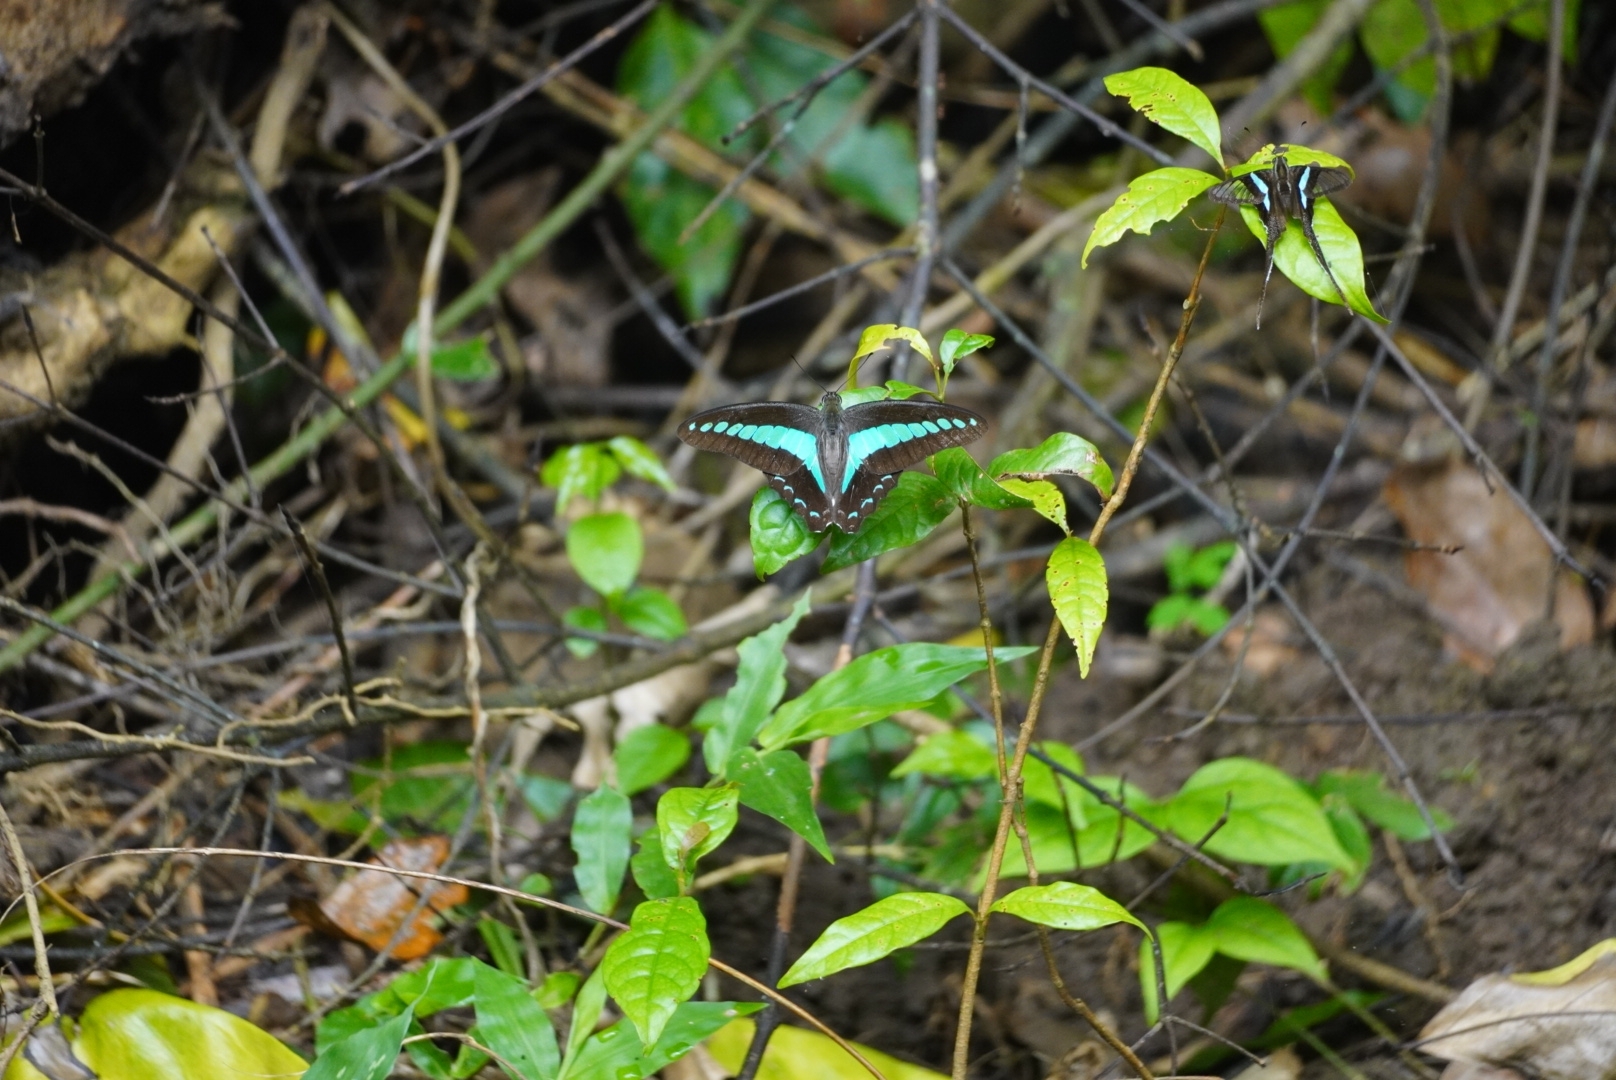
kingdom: Fungi
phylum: Ascomycota
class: Sordariomycetes
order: Microascales
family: Microascaceae
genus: Graphium
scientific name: Graphium sarpedon
